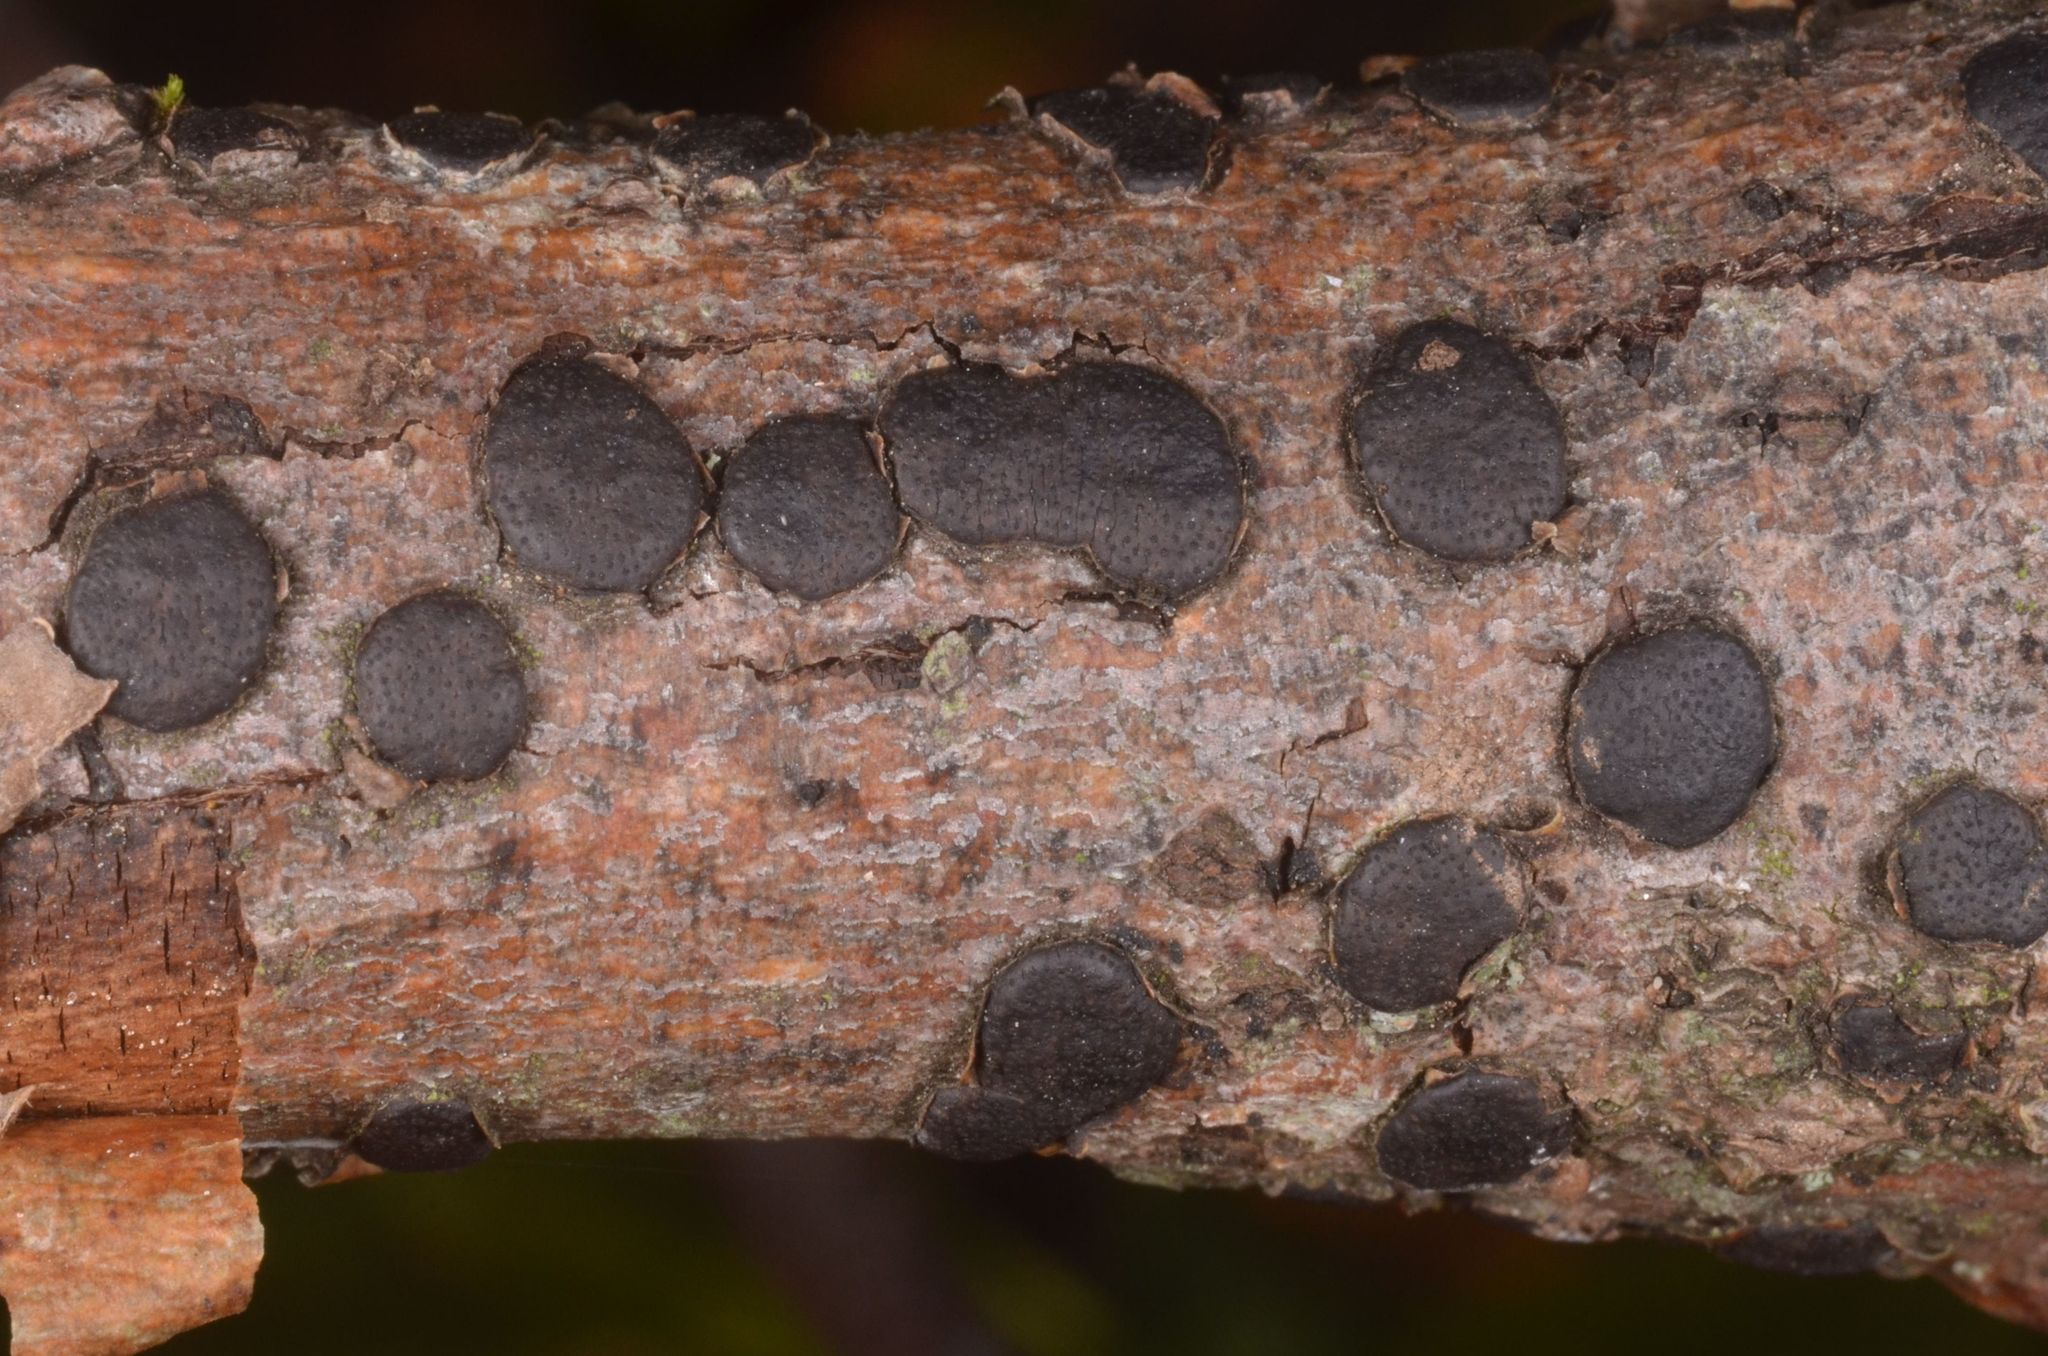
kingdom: Fungi
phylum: Ascomycota
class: Sordariomycetes
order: Xylariales
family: Diatrypaceae
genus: Diatrype
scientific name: Diatrype bullata
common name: Willow barkspot
